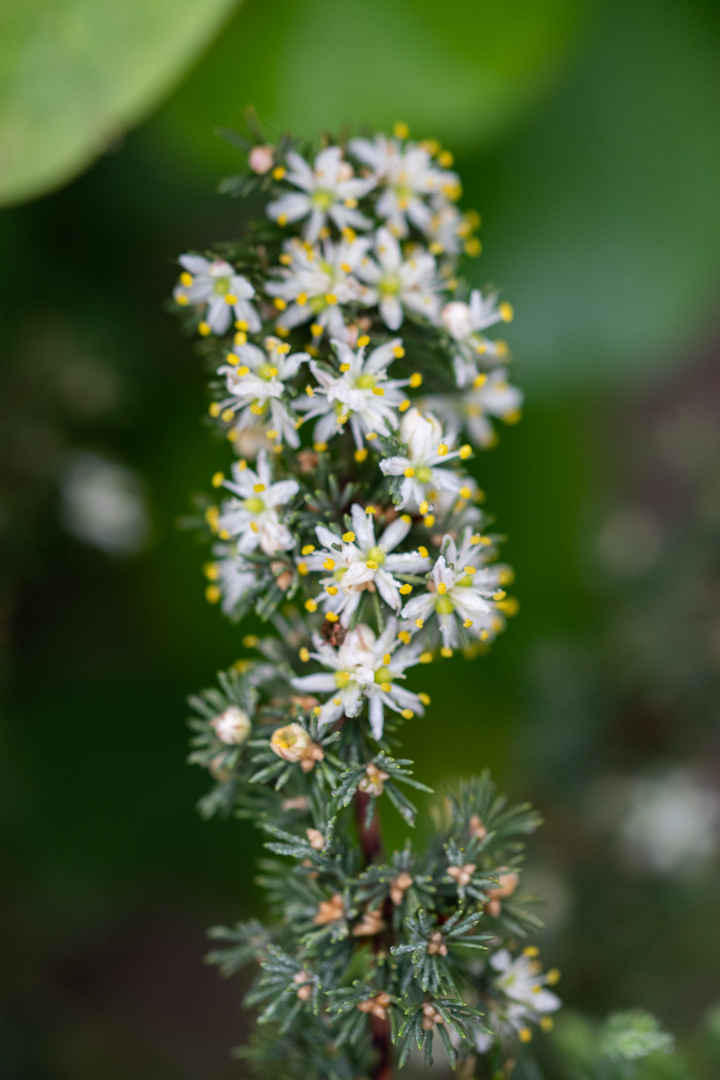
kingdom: Plantae
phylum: Tracheophyta
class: Liliopsida
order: Asparagales
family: Asparagaceae
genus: Asparagus
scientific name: Asparagus capensis
